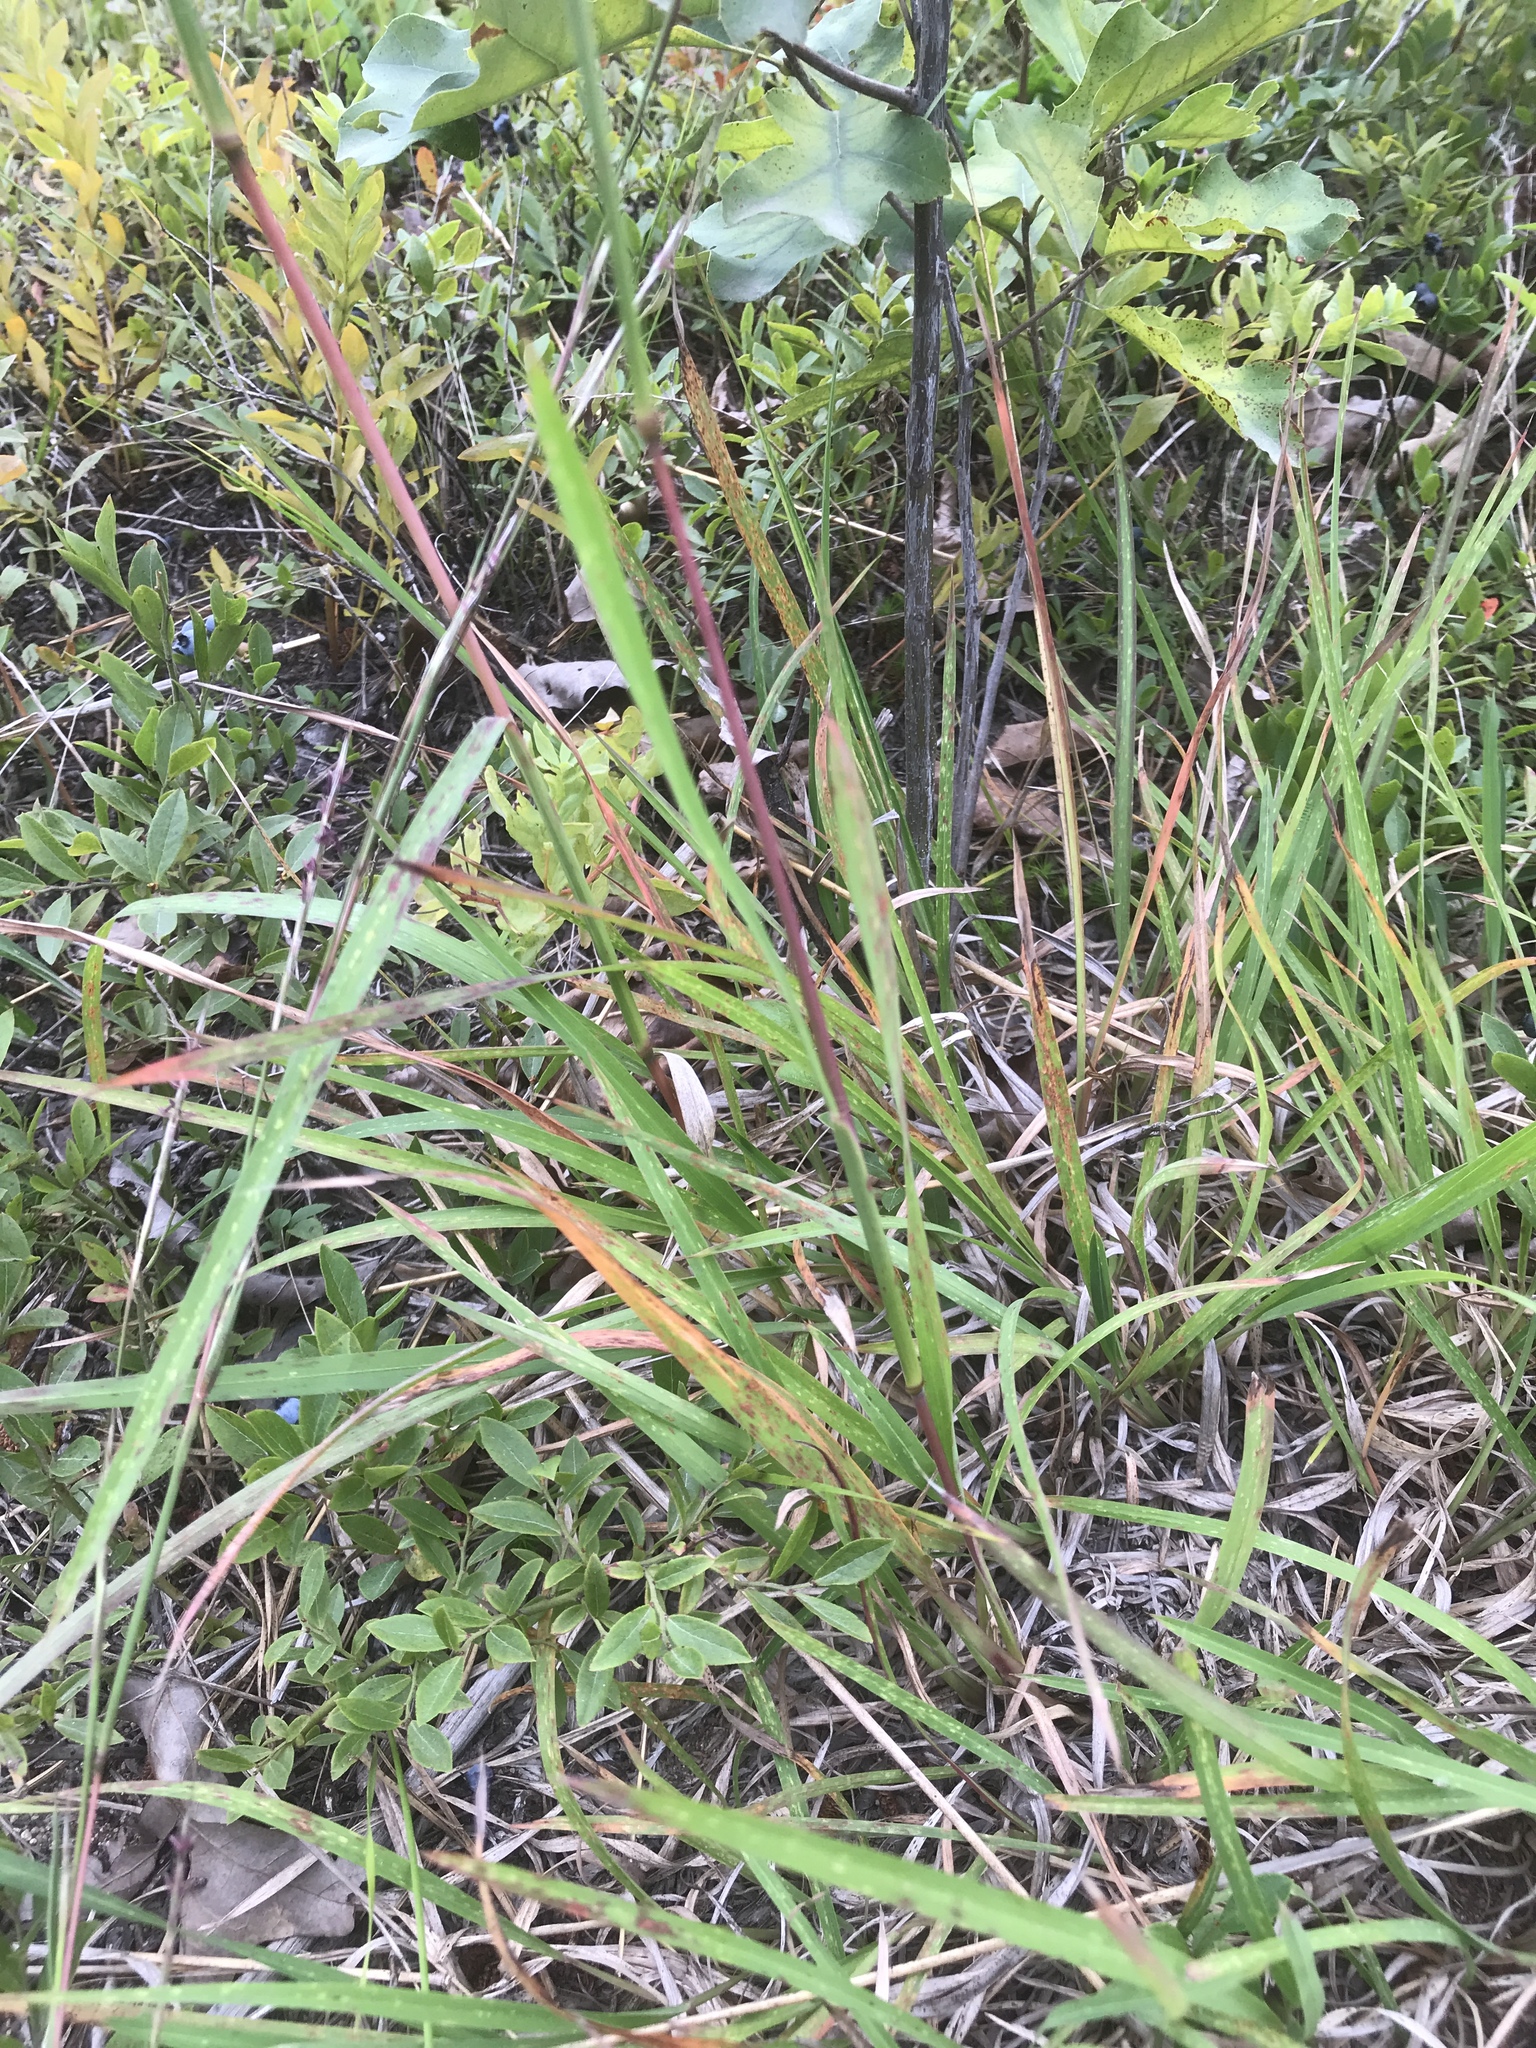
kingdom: Plantae
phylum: Tracheophyta
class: Liliopsida
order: Poales
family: Poaceae
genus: Schizachyrium
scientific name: Schizachyrium scoparium
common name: Little bluestem
